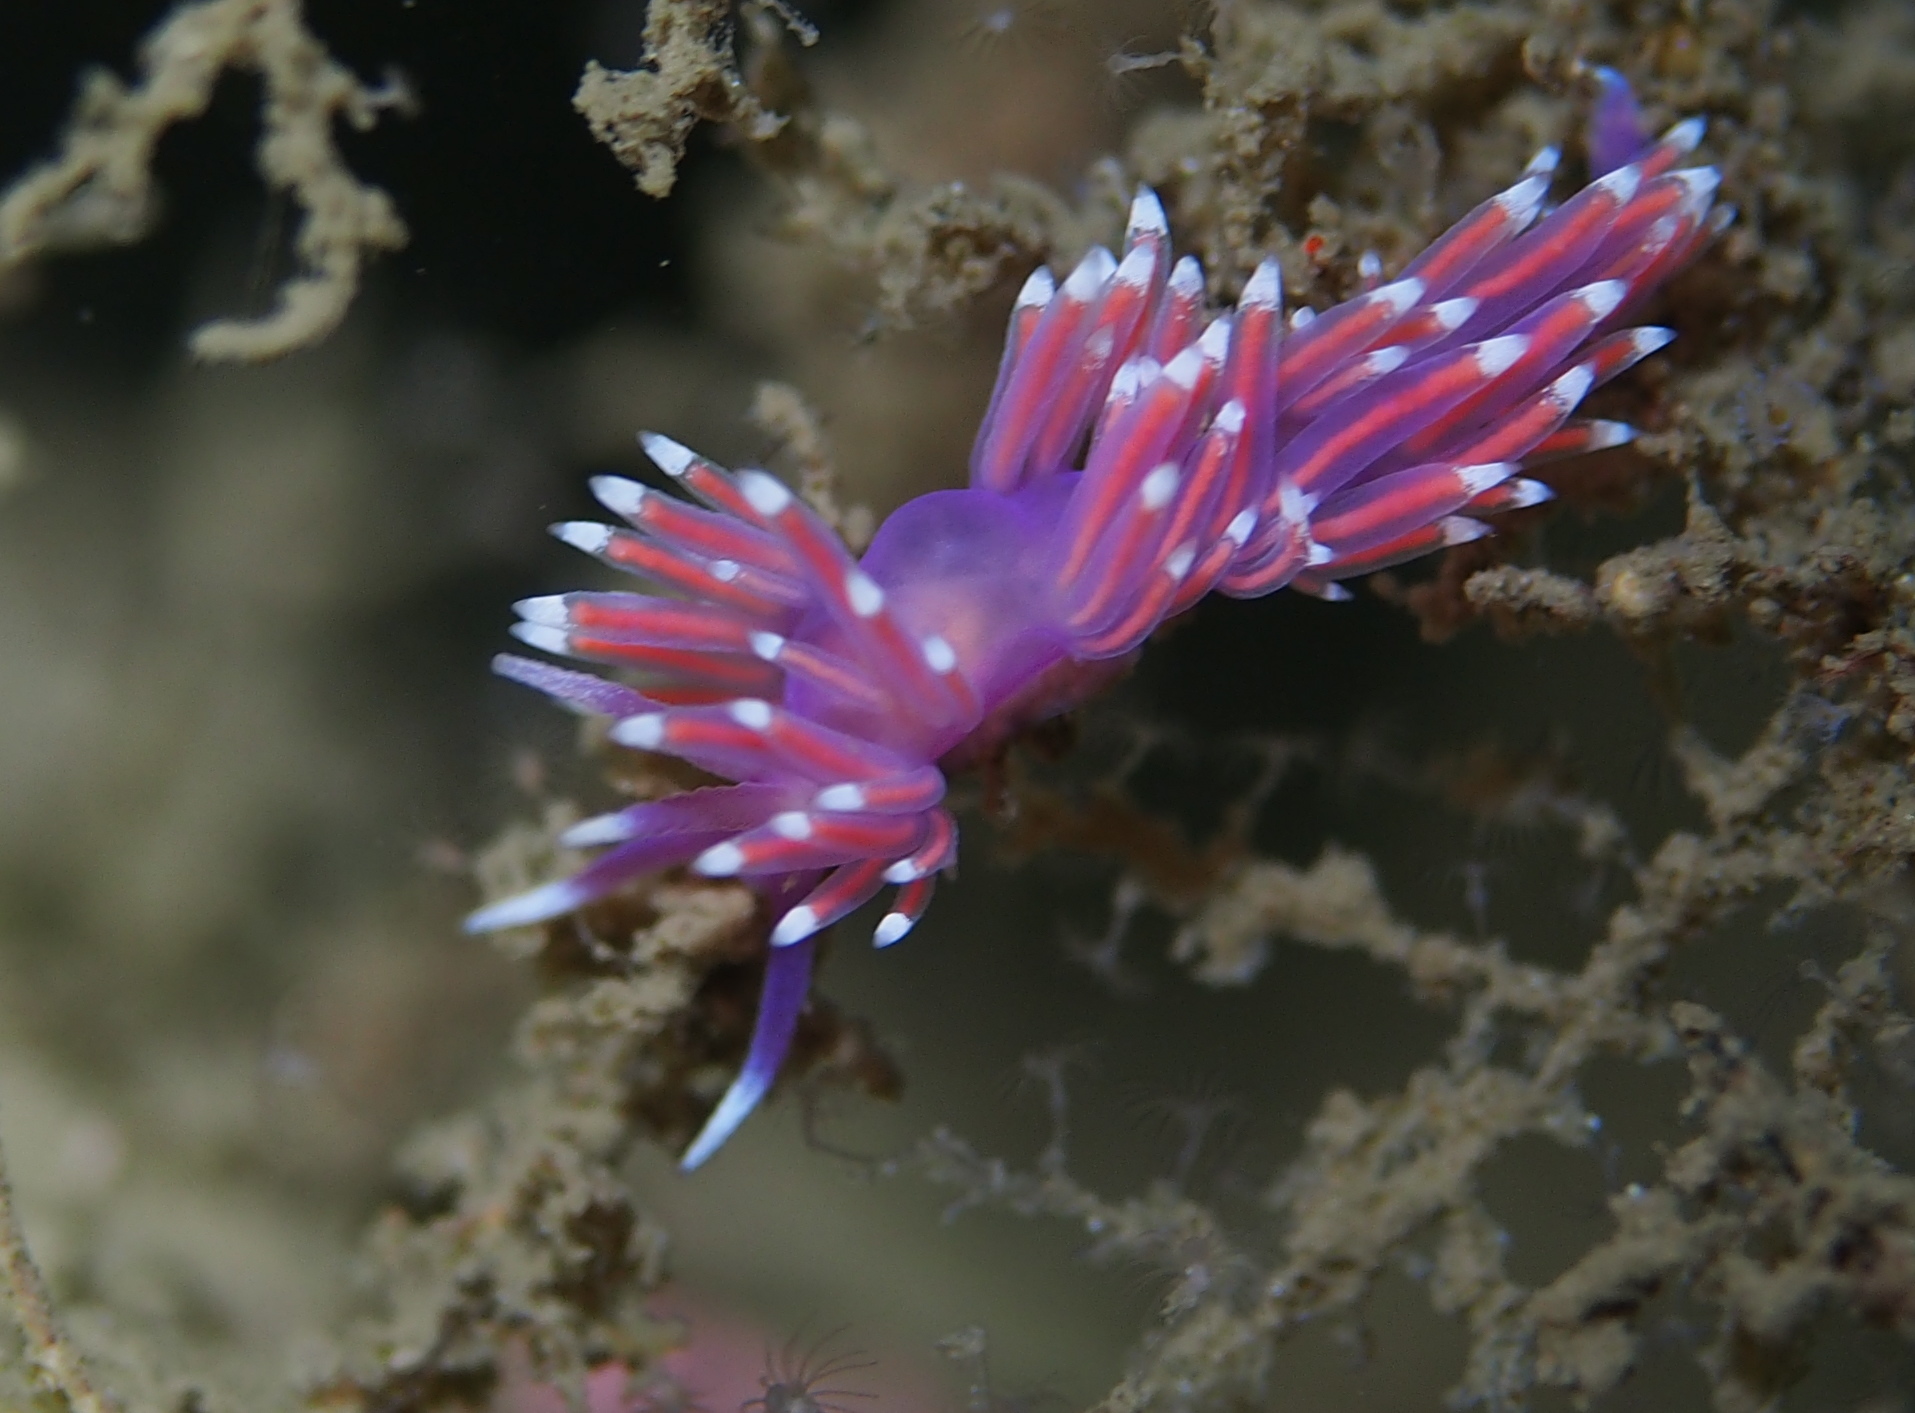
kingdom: Animalia
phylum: Mollusca
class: Gastropoda
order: Nudibranchia
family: Flabellinidae
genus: Edmundsella
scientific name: Edmundsella pedata
